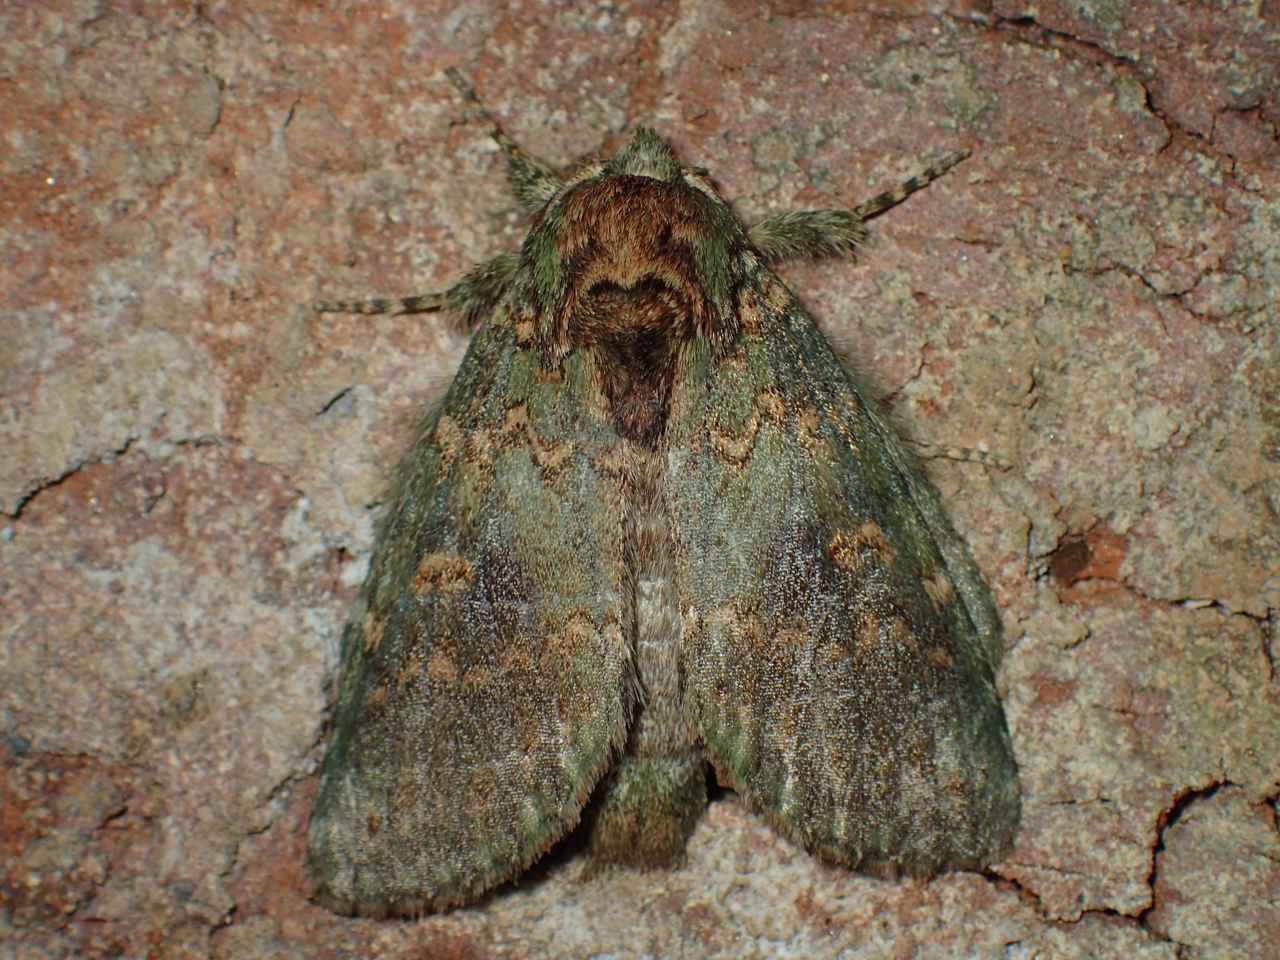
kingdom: Animalia
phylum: Arthropoda
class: Insecta
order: Lepidoptera
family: Notodontidae
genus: Disphragis
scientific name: Disphragis Cecrita biundata
